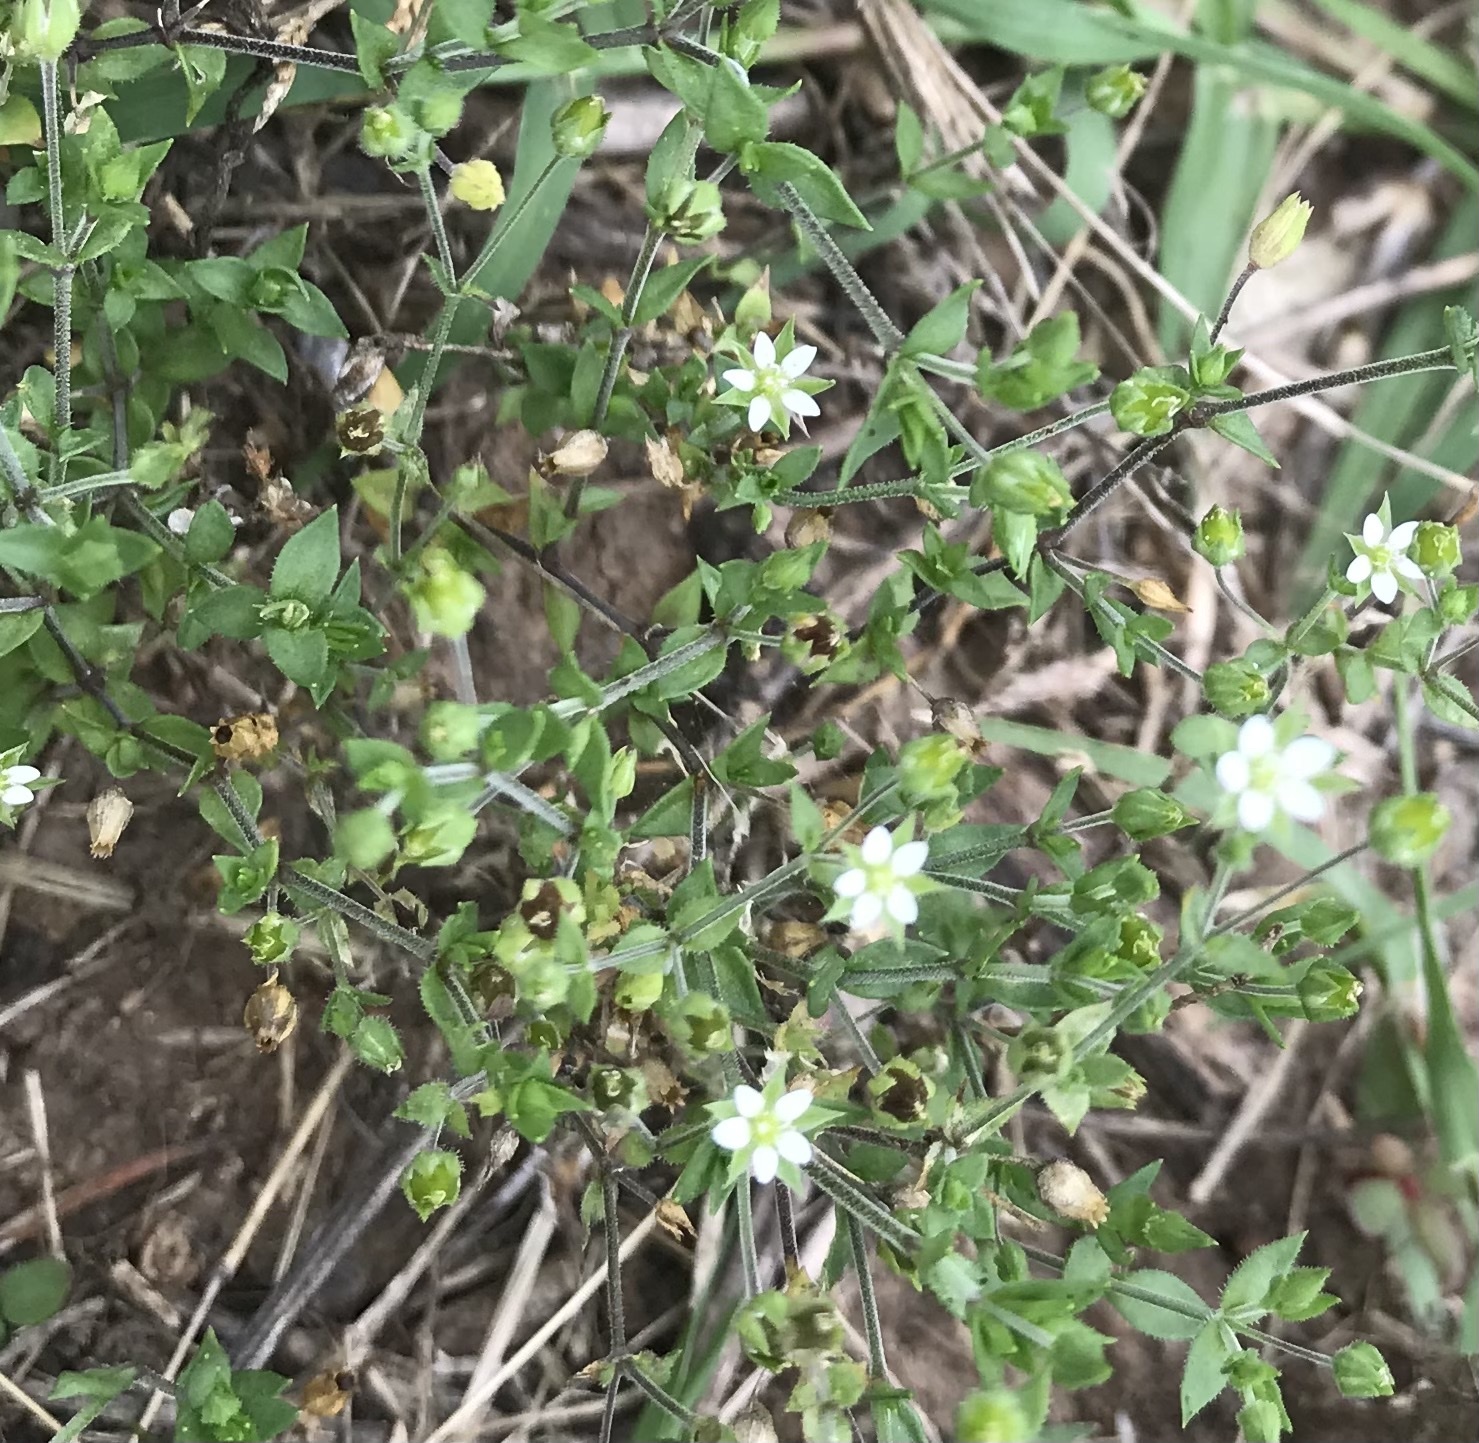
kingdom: Plantae
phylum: Tracheophyta
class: Magnoliopsida
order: Caryophyllales
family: Caryophyllaceae
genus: Arenaria
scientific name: Arenaria serpyllifolia
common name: Thyme-leaved sandwort
